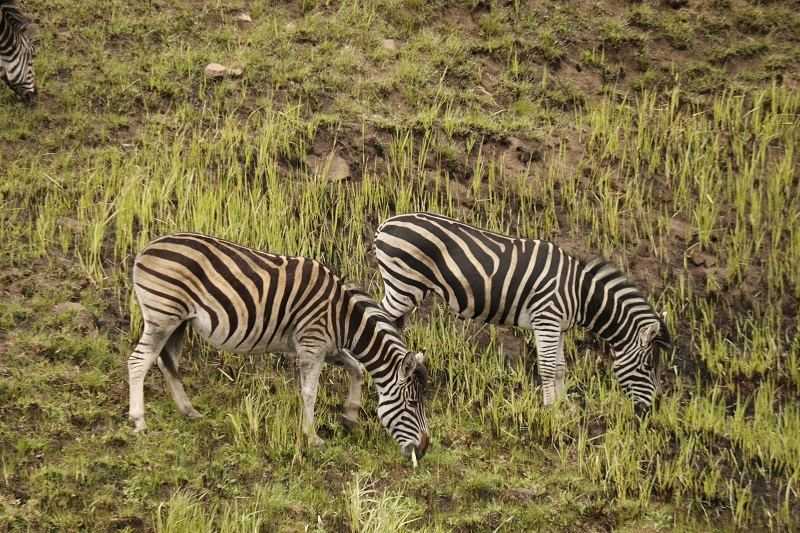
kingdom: Animalia
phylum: Chordata
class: Mammalia
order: Perissodactyla
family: Equidae
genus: Equus
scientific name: Equus quagga
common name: Plains zebra
